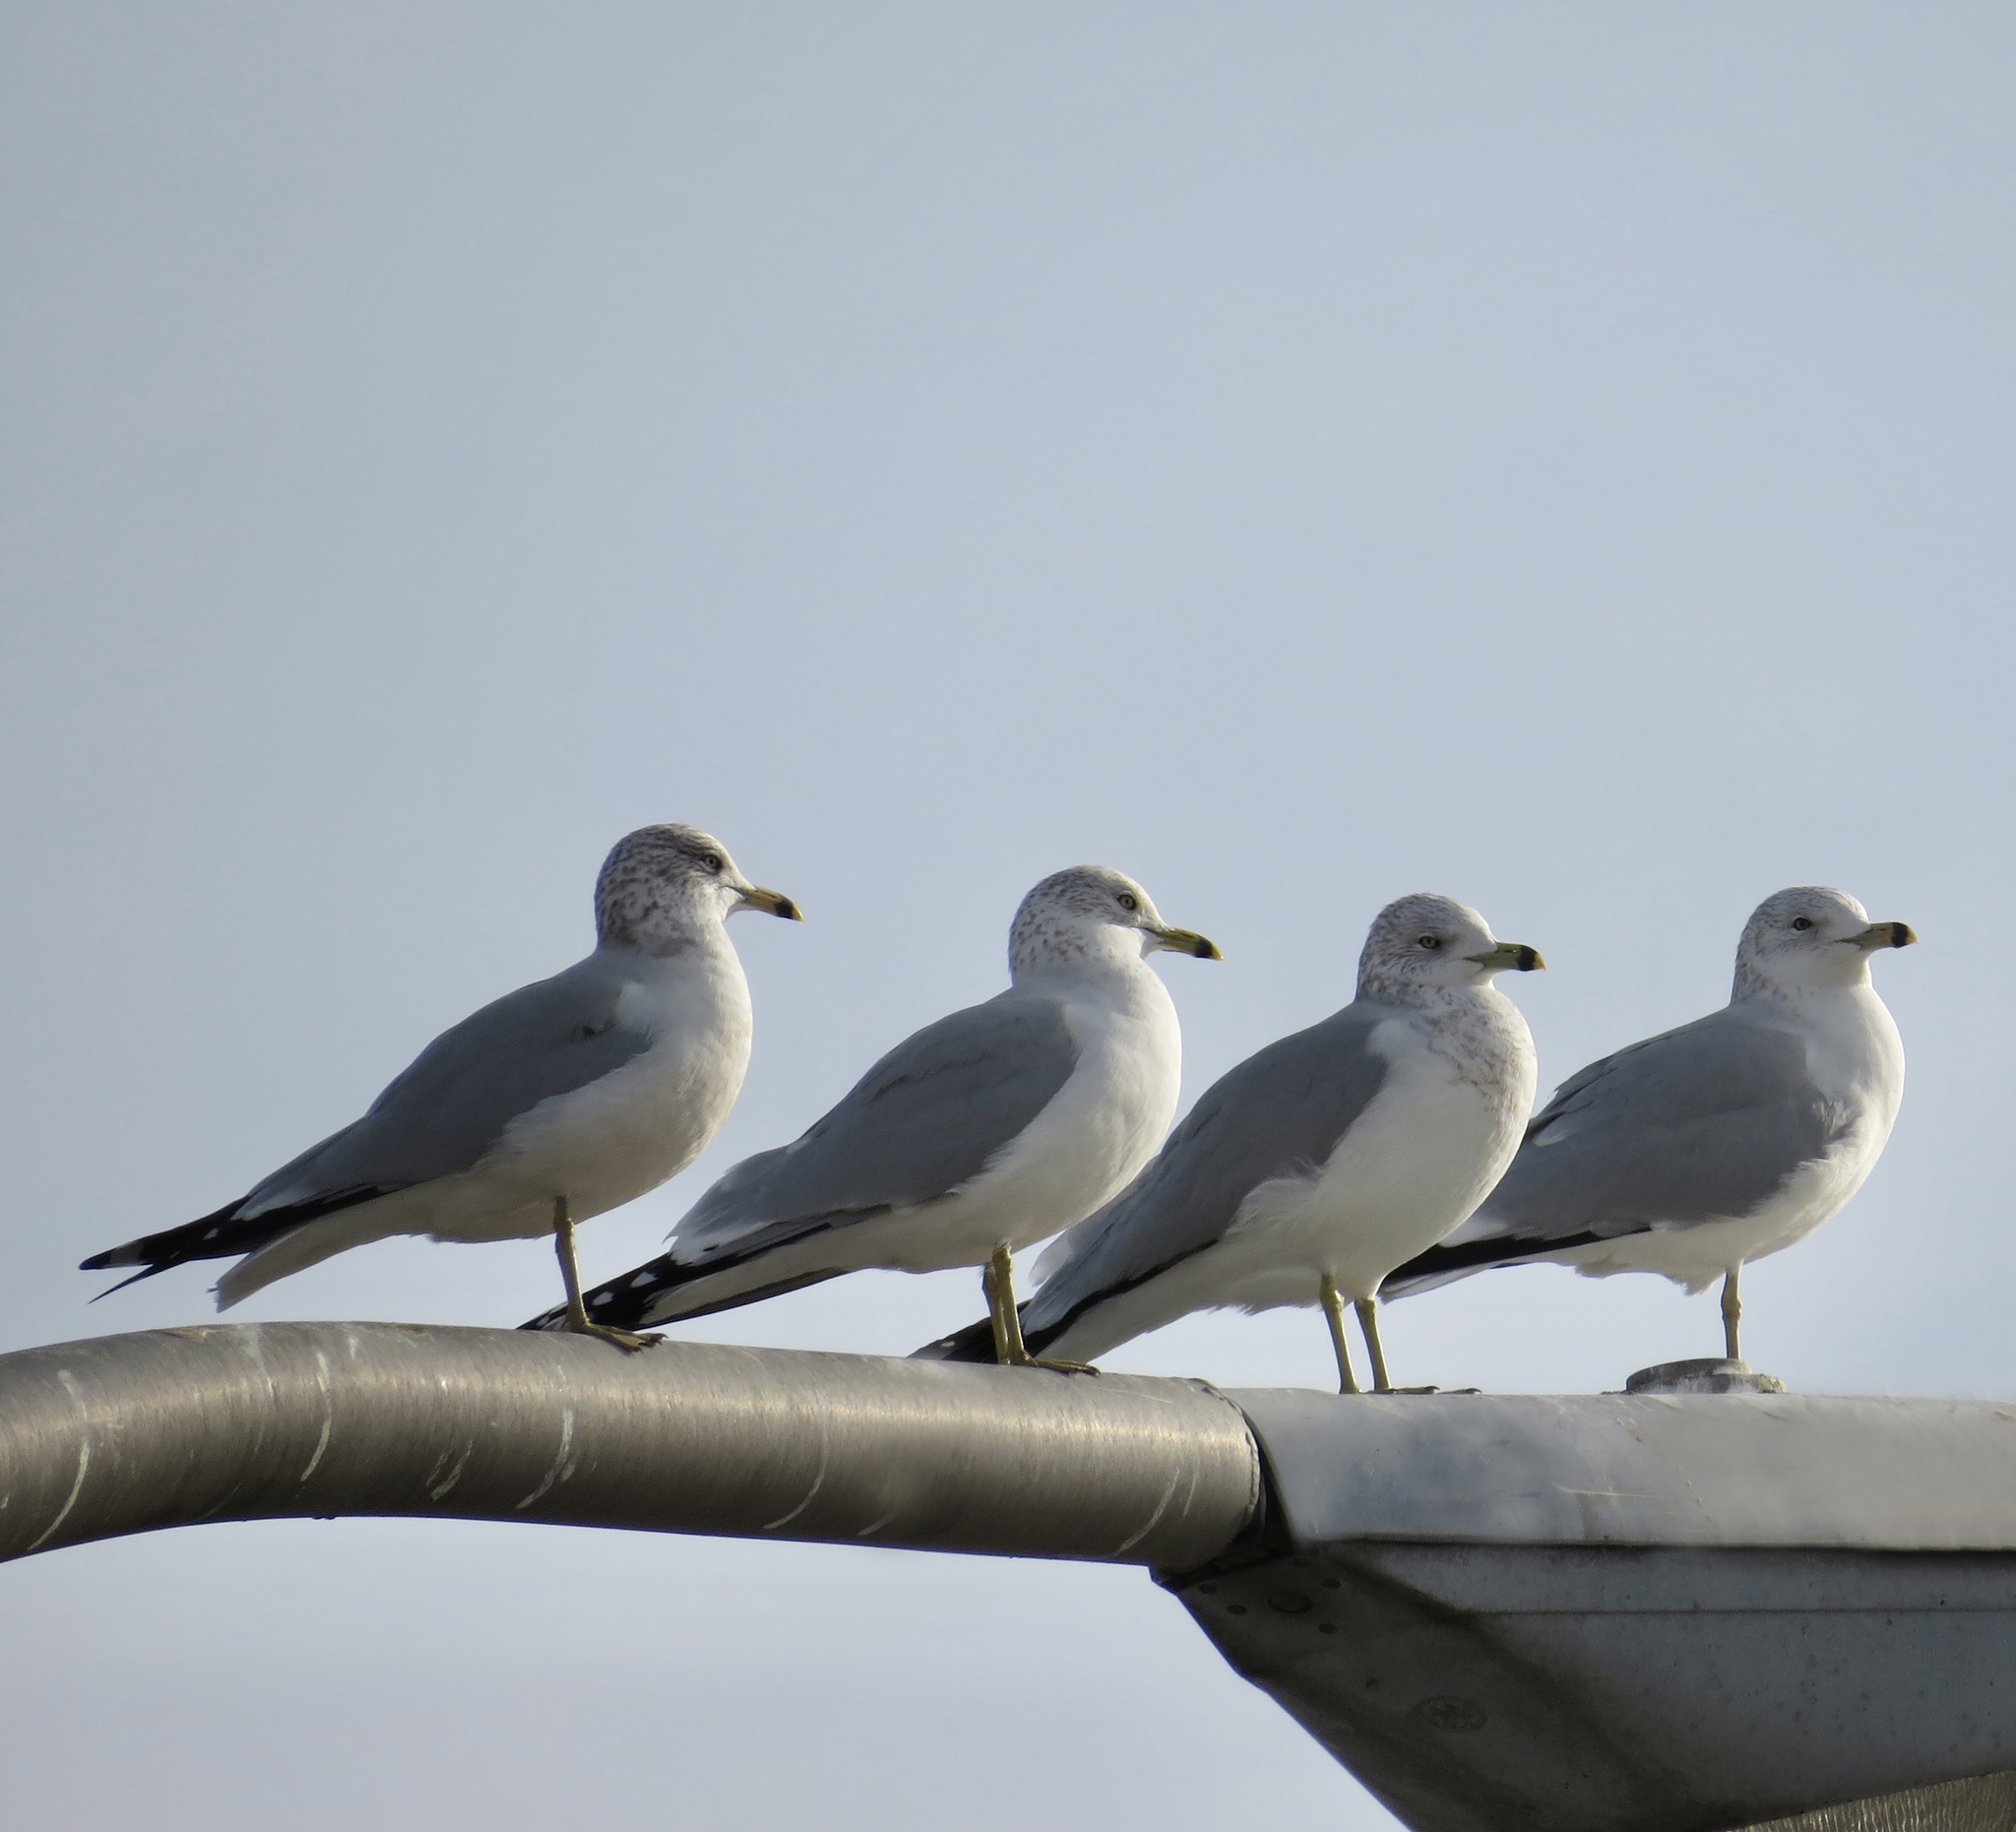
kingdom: Animalia
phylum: Chordata
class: Aves
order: Charadriiformes
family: Laridae
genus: Larus
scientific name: Larus delawarensis
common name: Ring-billed gull
